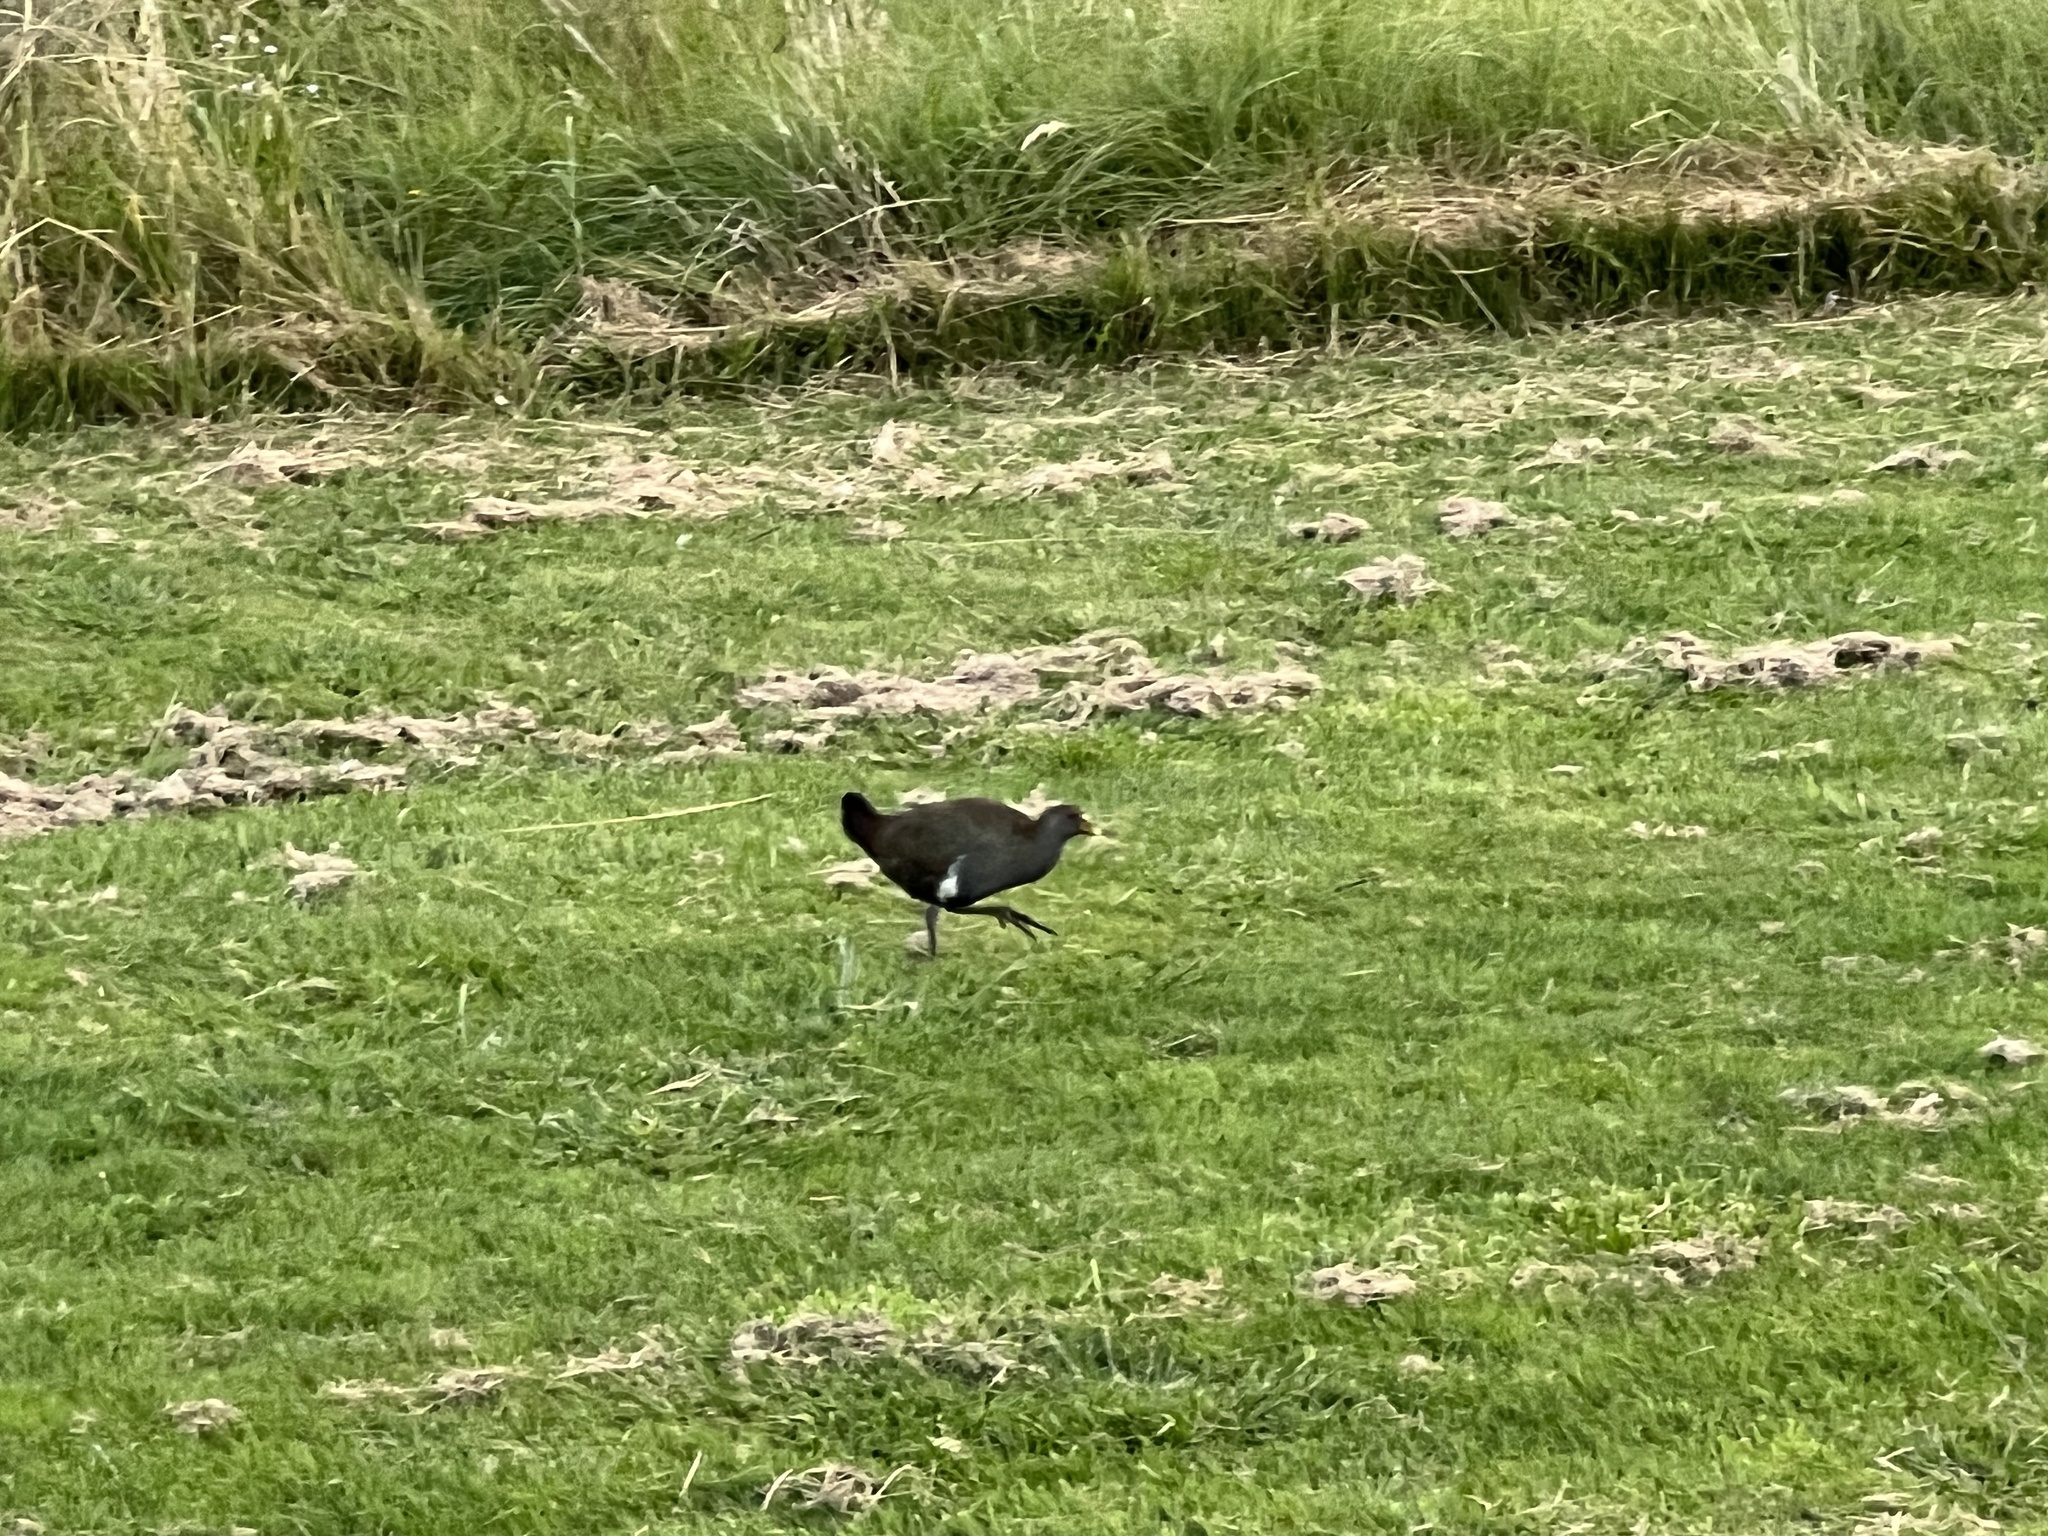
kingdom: Animalia
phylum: Chordata
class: Aves
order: Gruiformes
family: Rallidae
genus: Gallinula
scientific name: Gallinula mortierii
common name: Tasmanian nativehen
